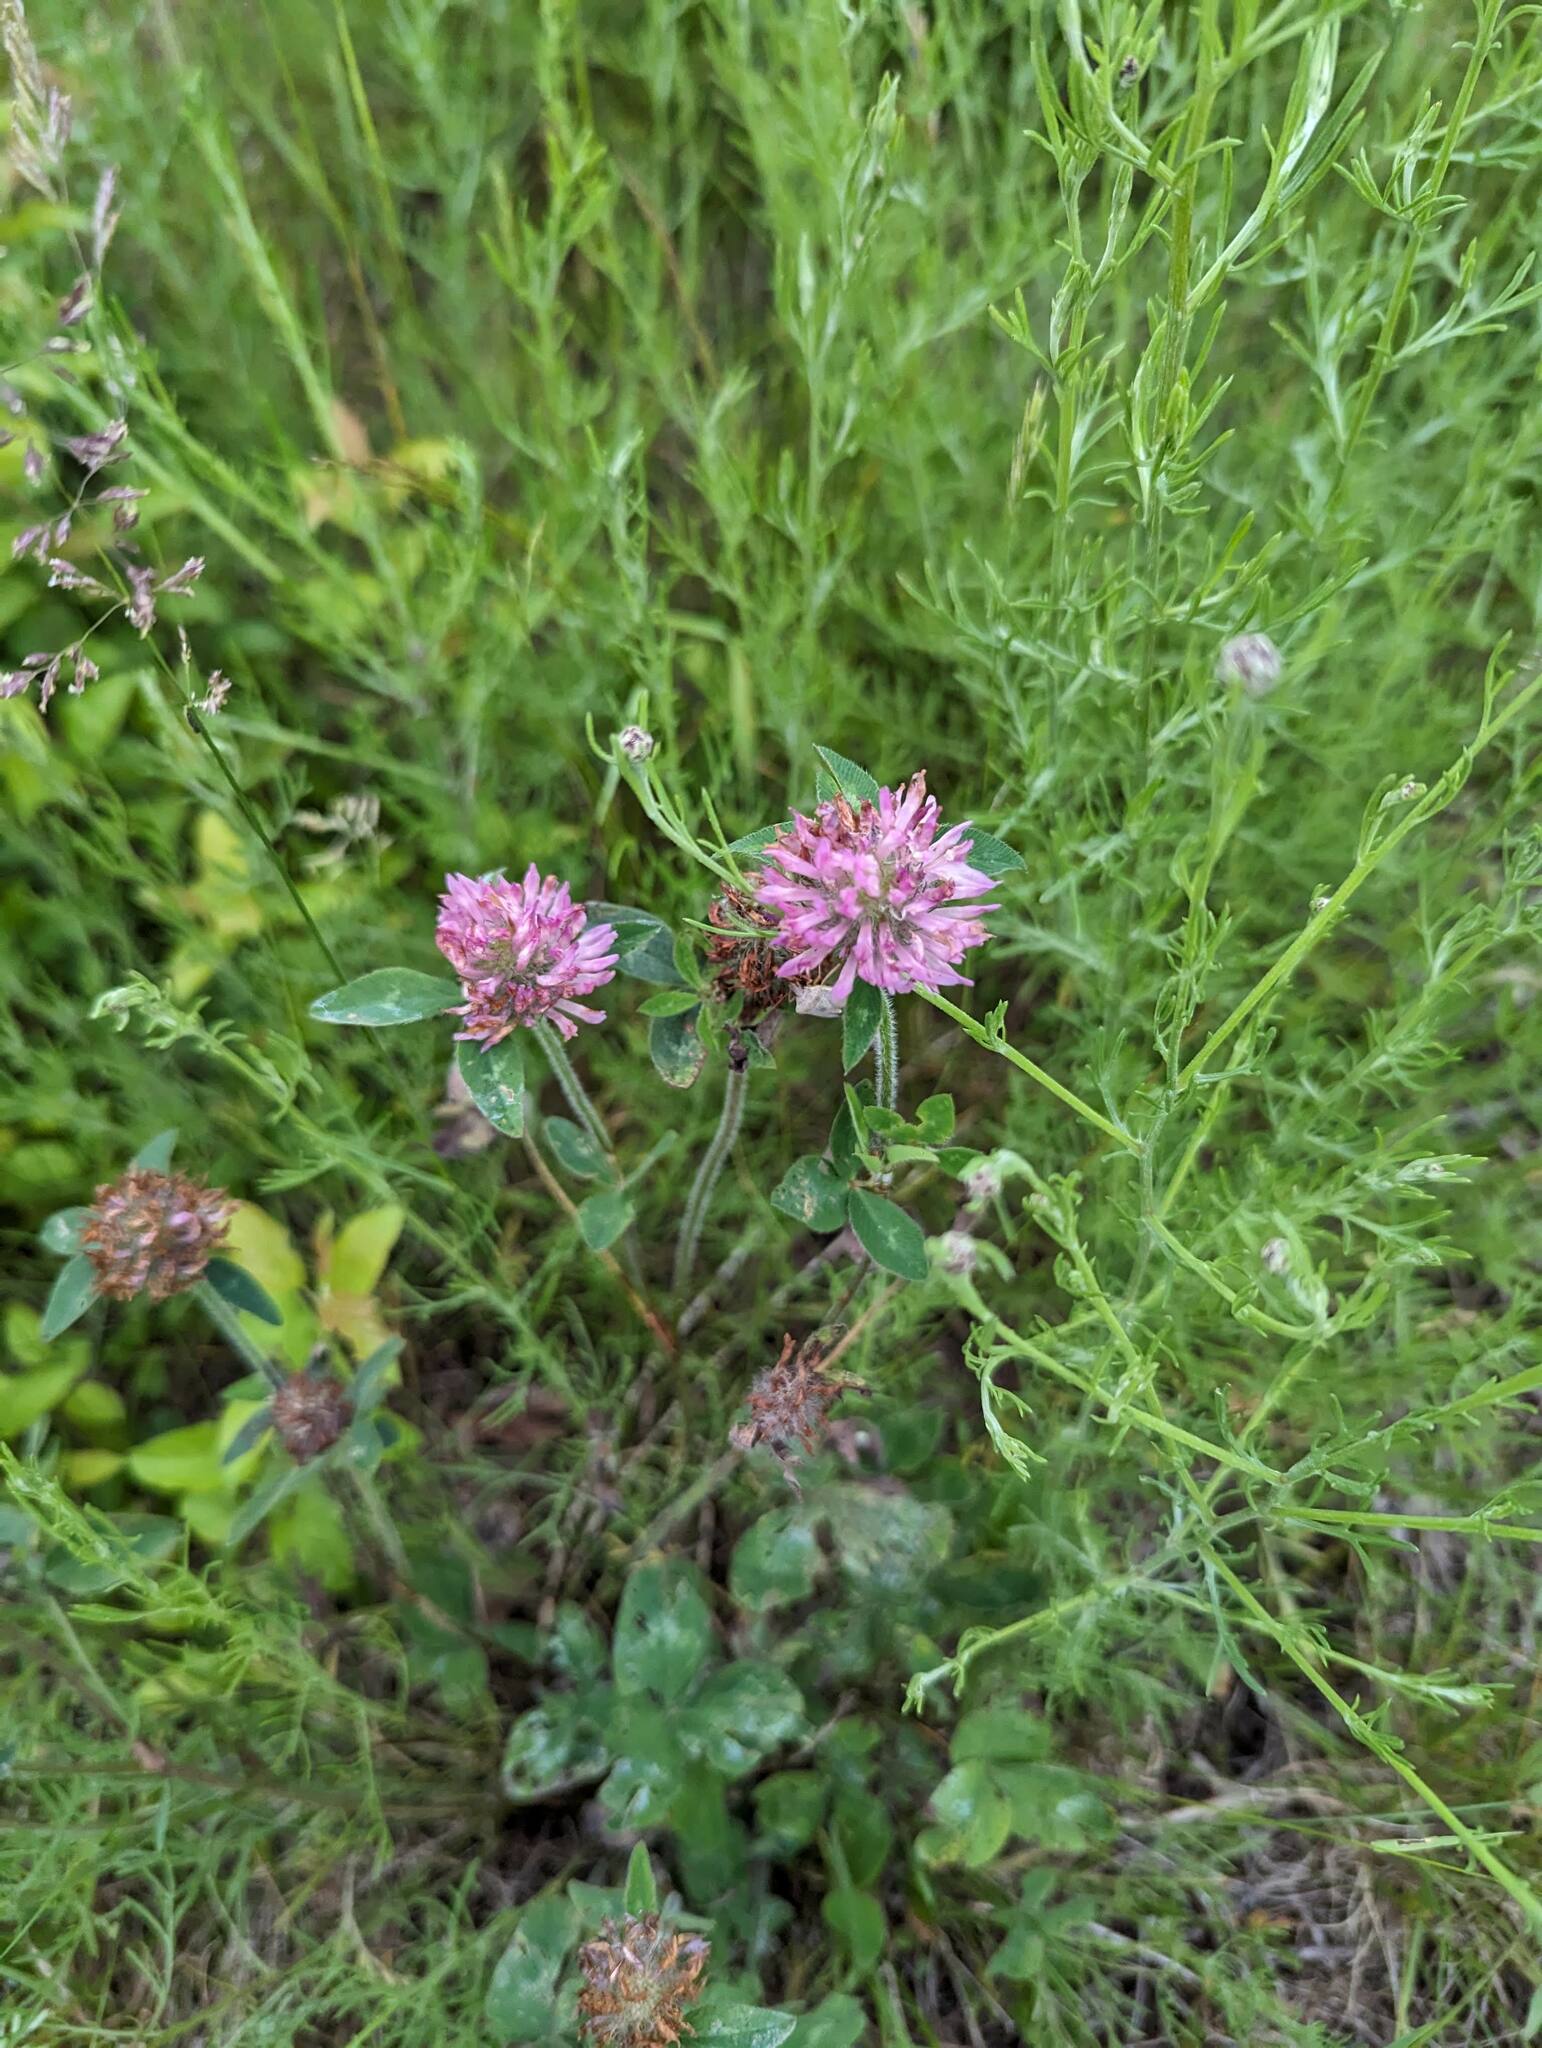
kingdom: Plantae
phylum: Tracheophyta
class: Magnoliopsida
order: Fabales
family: Fabaceae
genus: Trifolium
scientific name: Trifolium pratense
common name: Red clover
